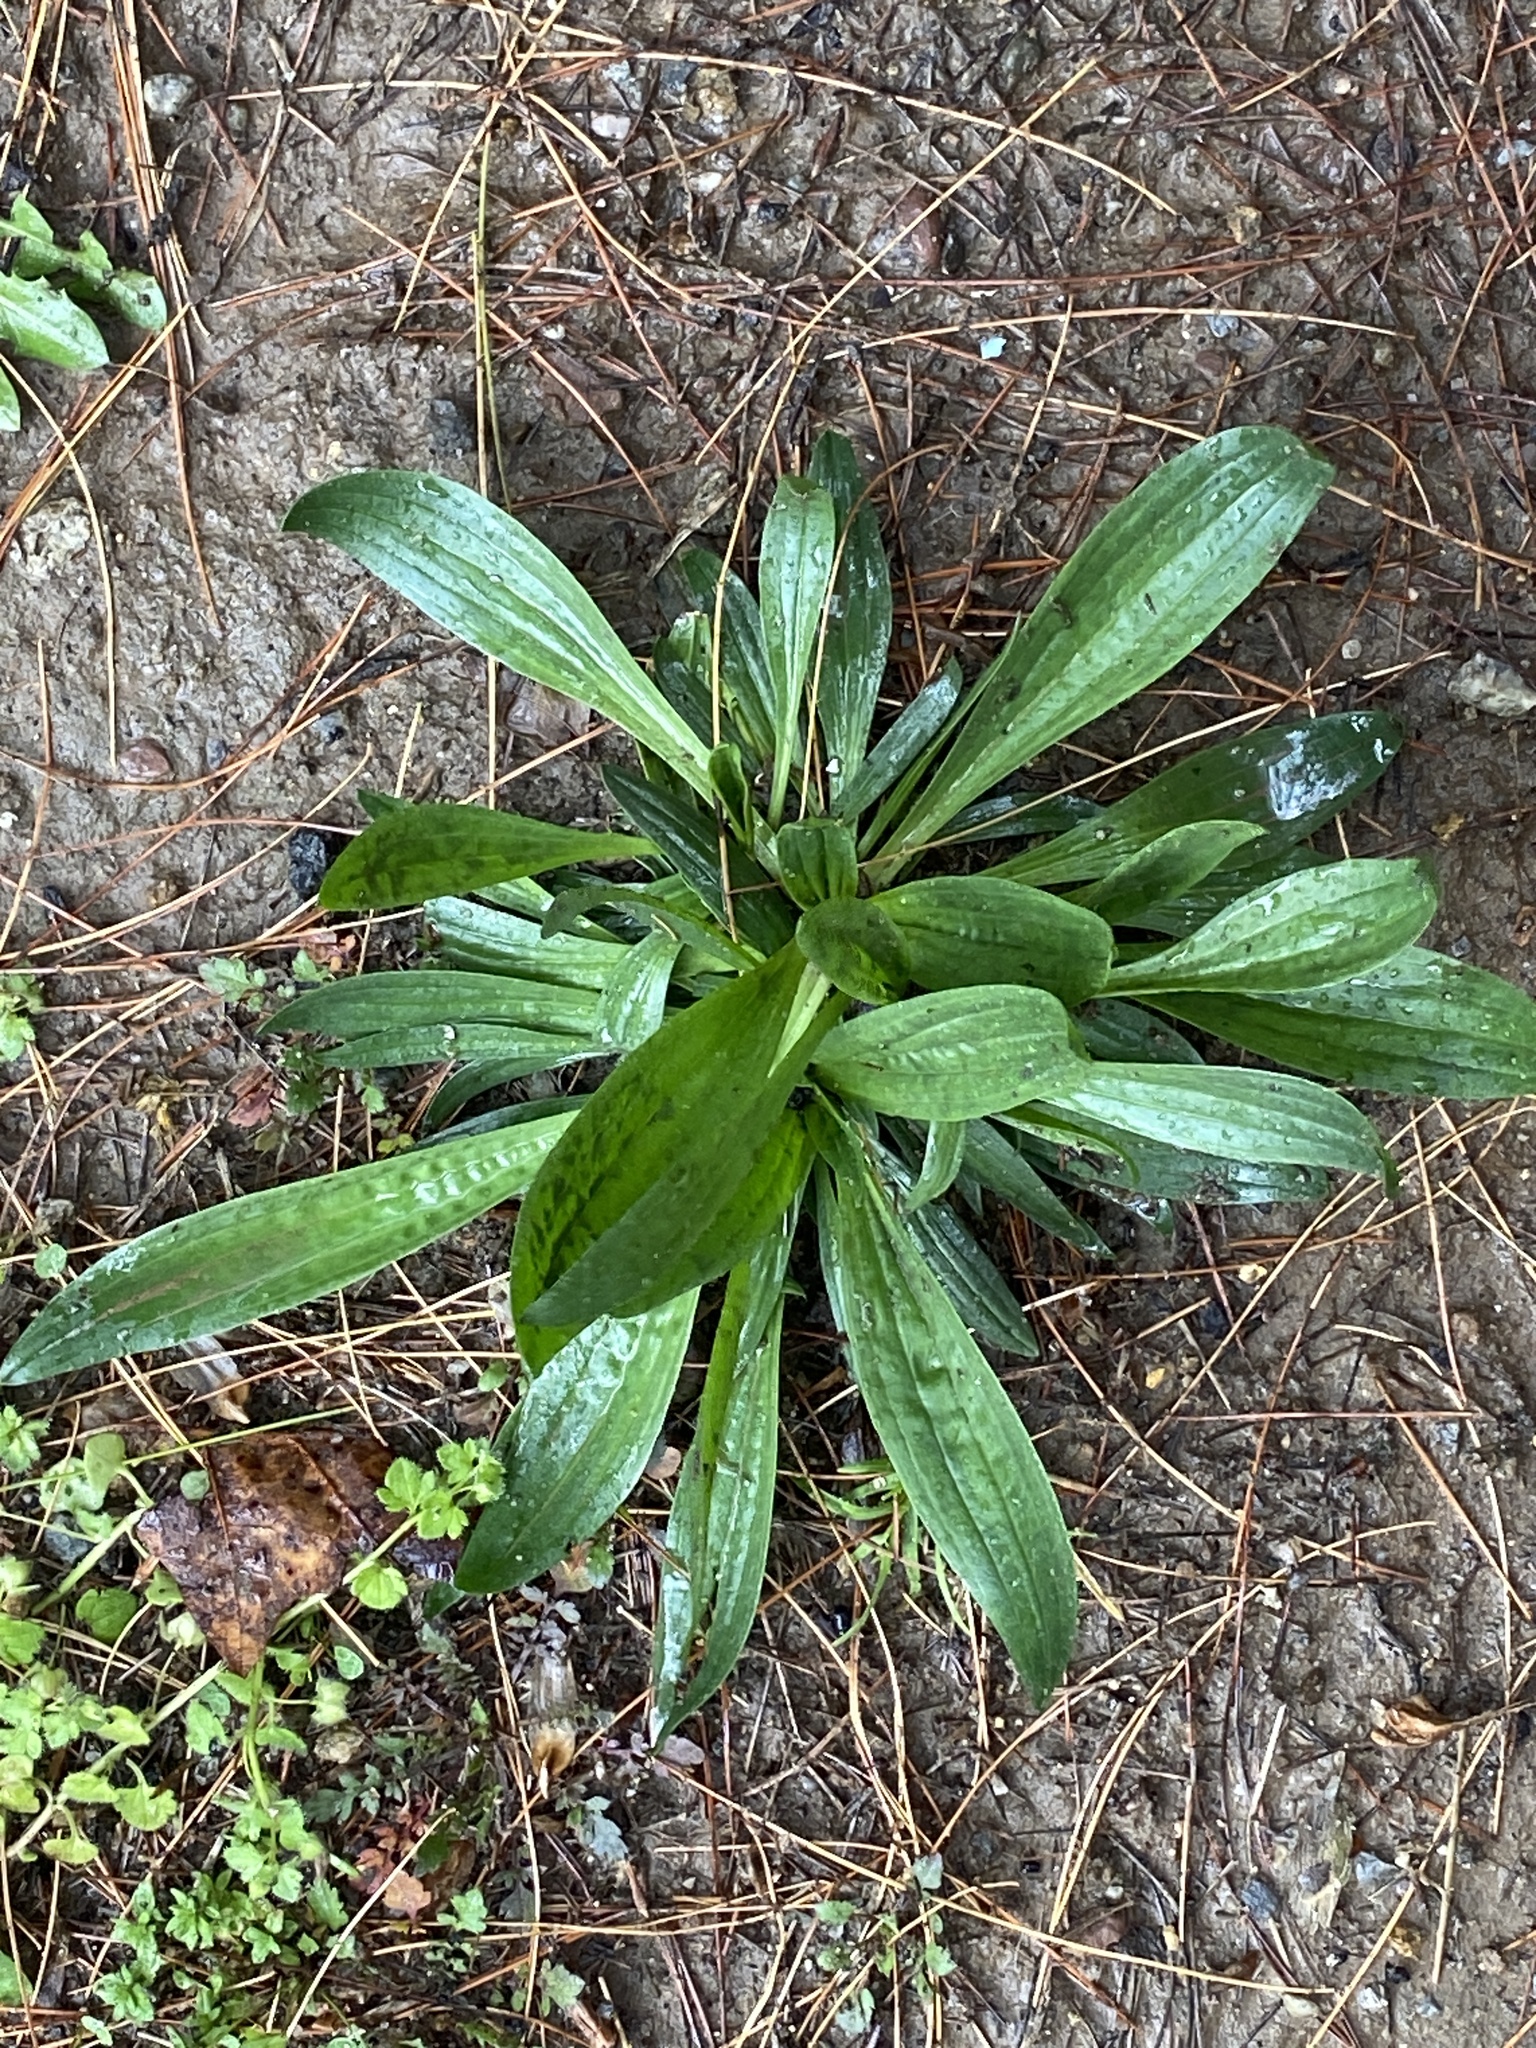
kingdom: Plantae
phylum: Tracheophyta
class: Magnoliopsida
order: Lamiales
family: Plantaginaceae
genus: Plantago
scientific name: Plantago lanceolata
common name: Ribwort plantain
